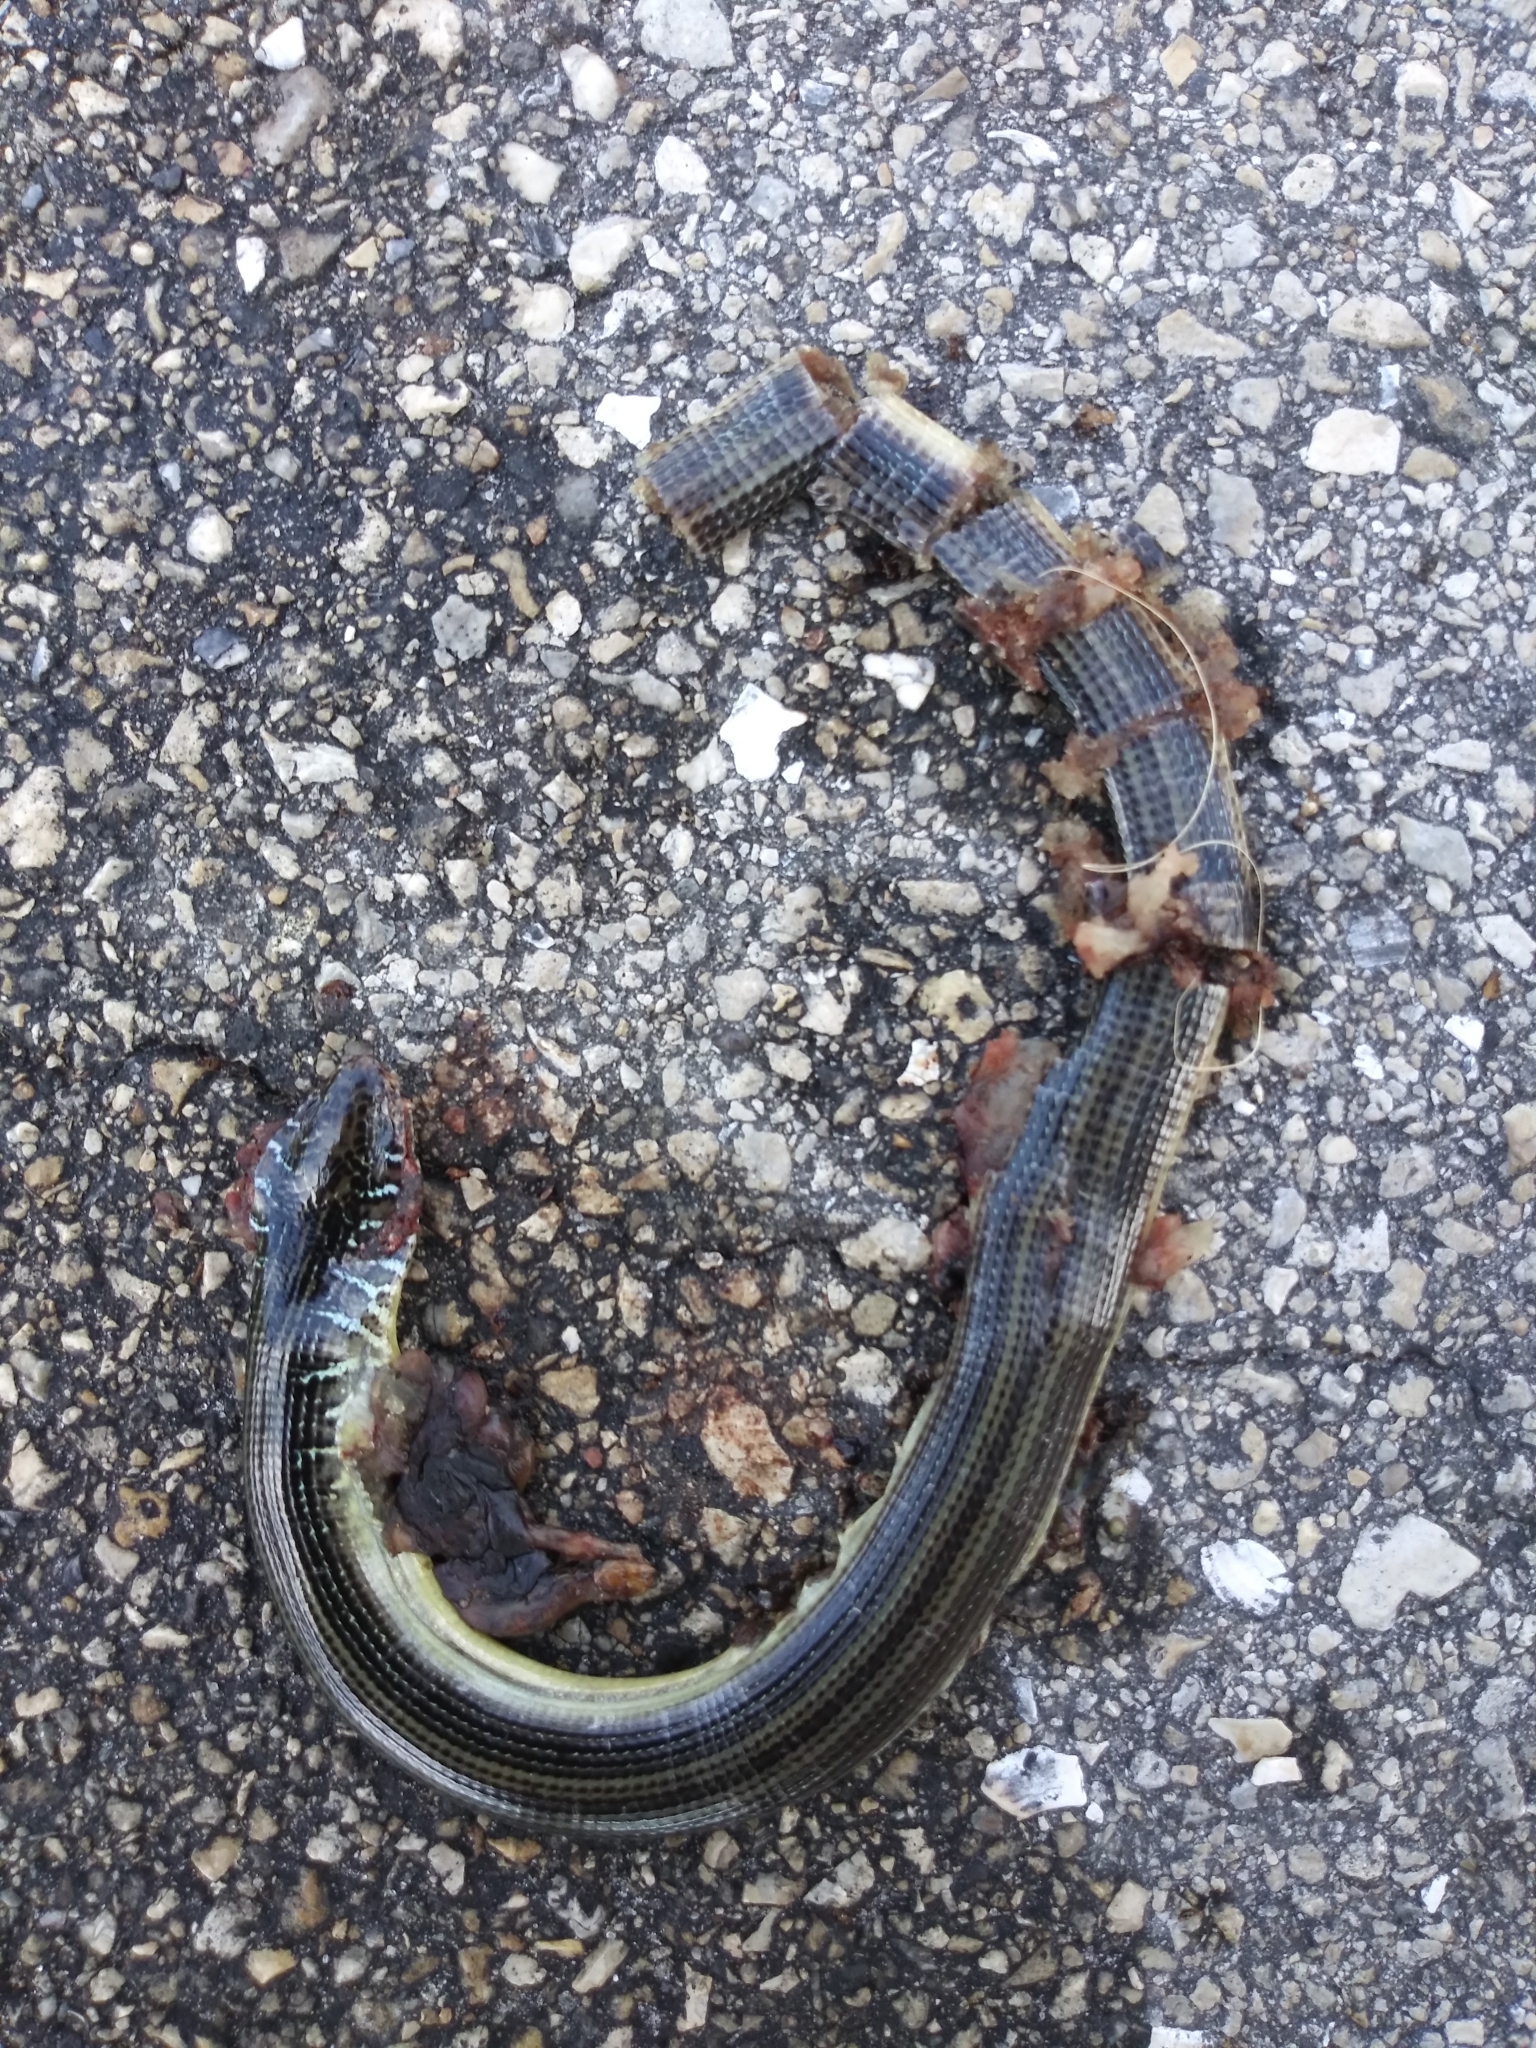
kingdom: Animalia
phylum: Chordata
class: Squamata
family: Anguidae
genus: Ophisaurus
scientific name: Ophisaurus ventralis
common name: Eastern glass lizard
